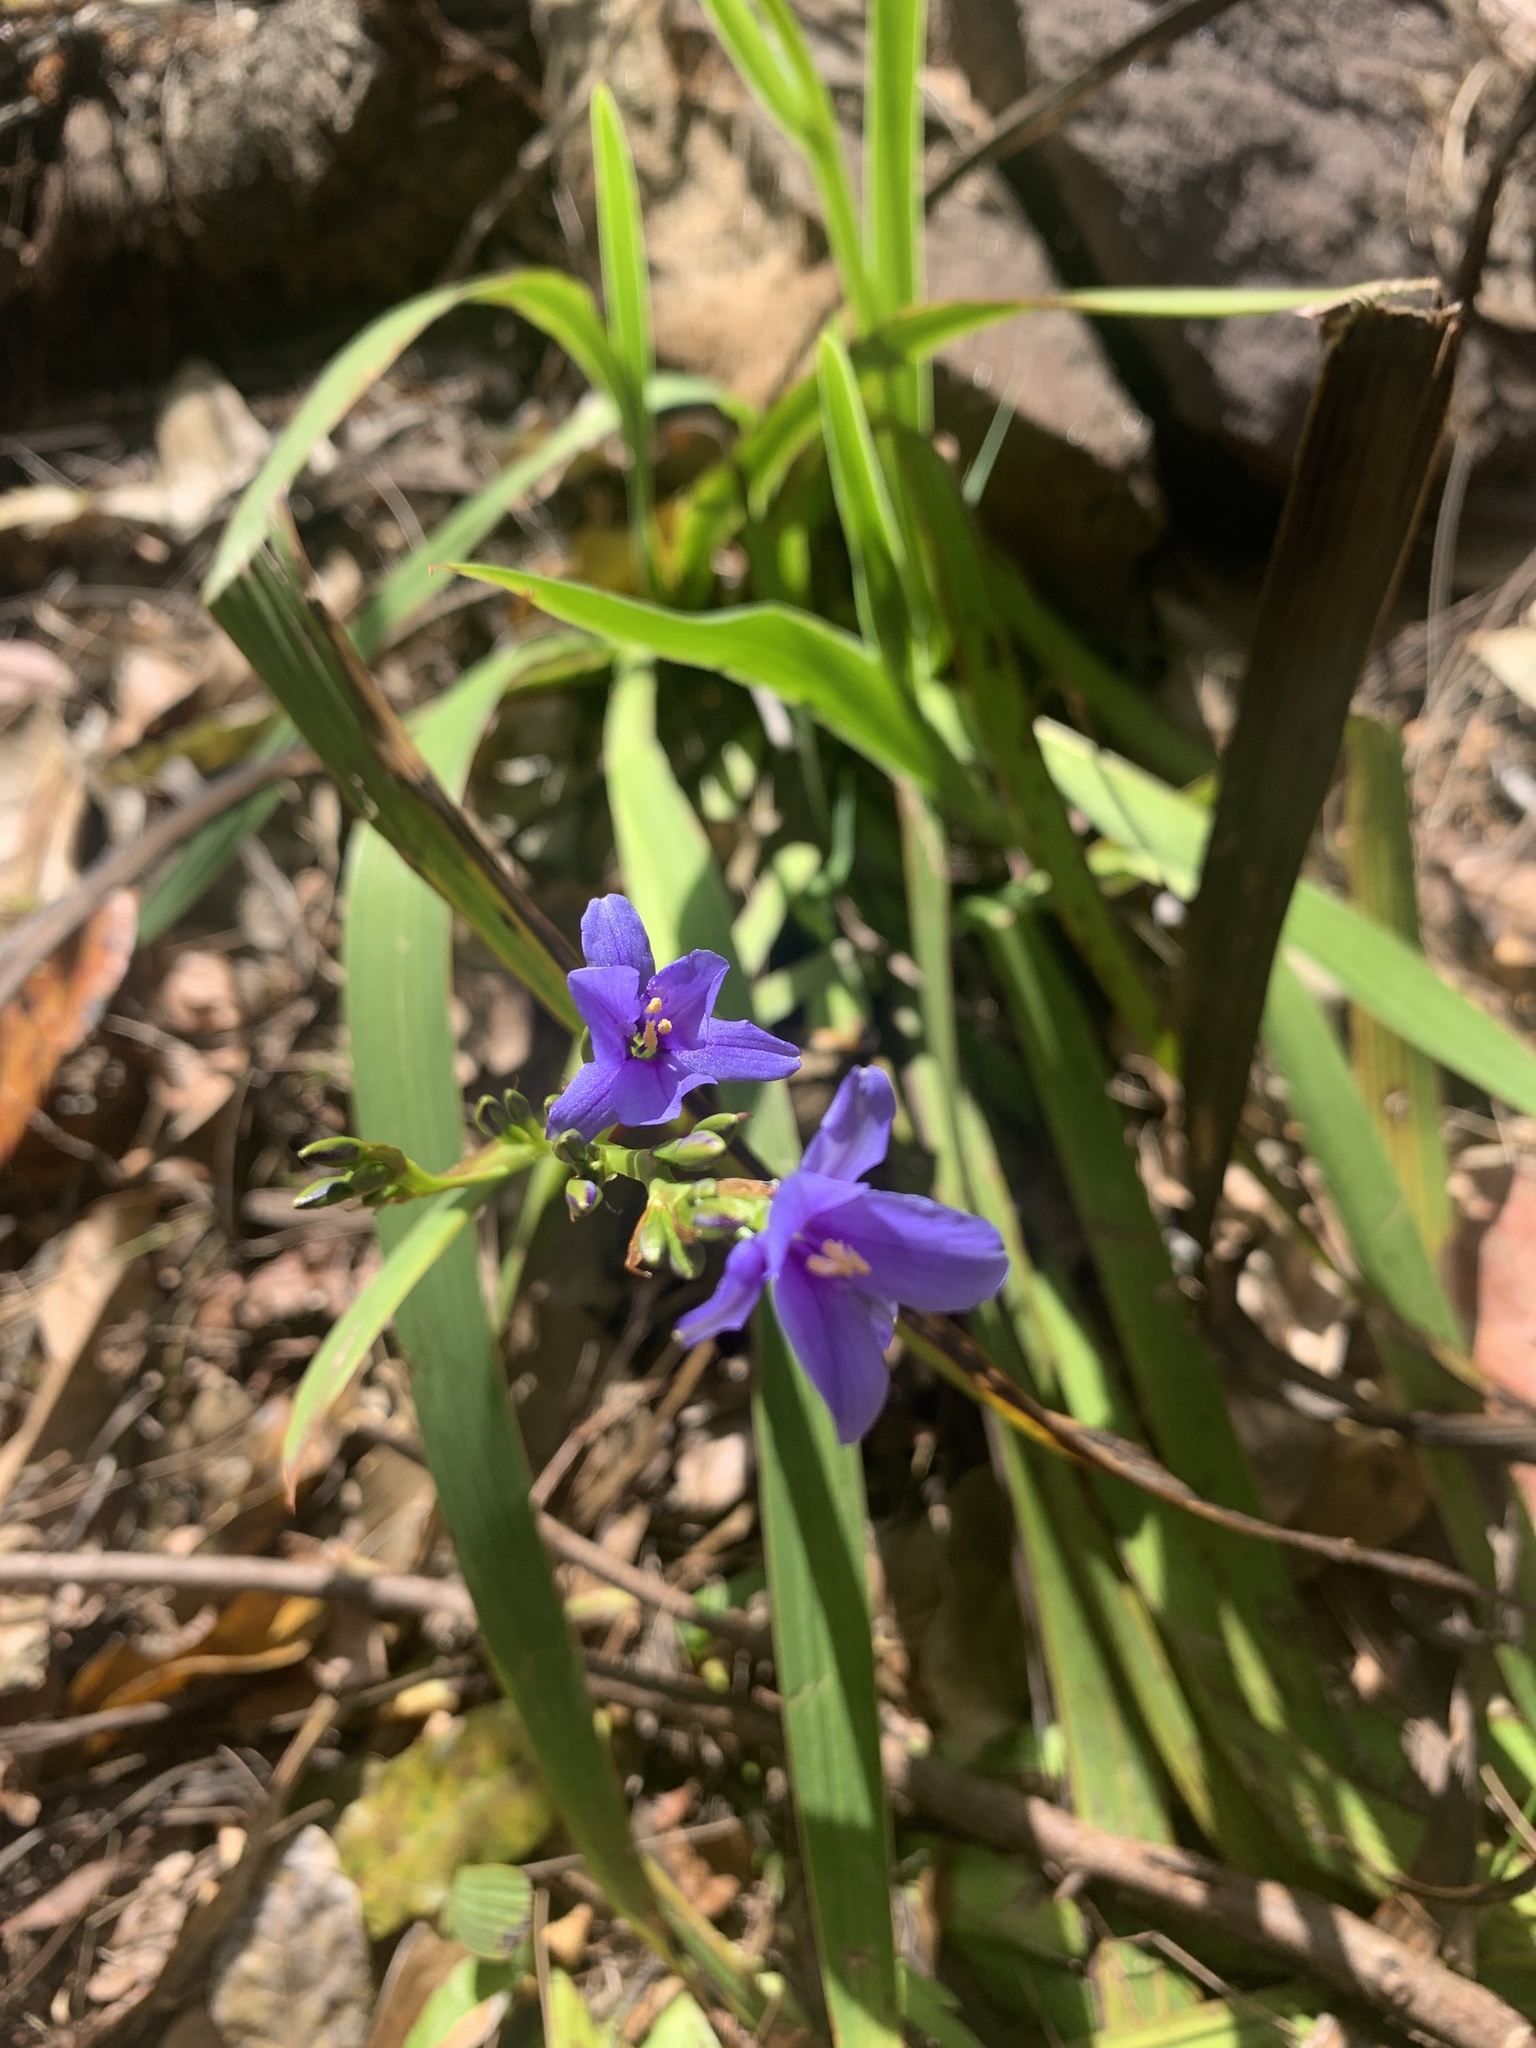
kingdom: Plantae
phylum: Tracheophyta
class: Liliopsida
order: Asparagales
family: Iridaceae
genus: Aristea
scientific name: Aristea ecklonii
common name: Blue corn-lily
